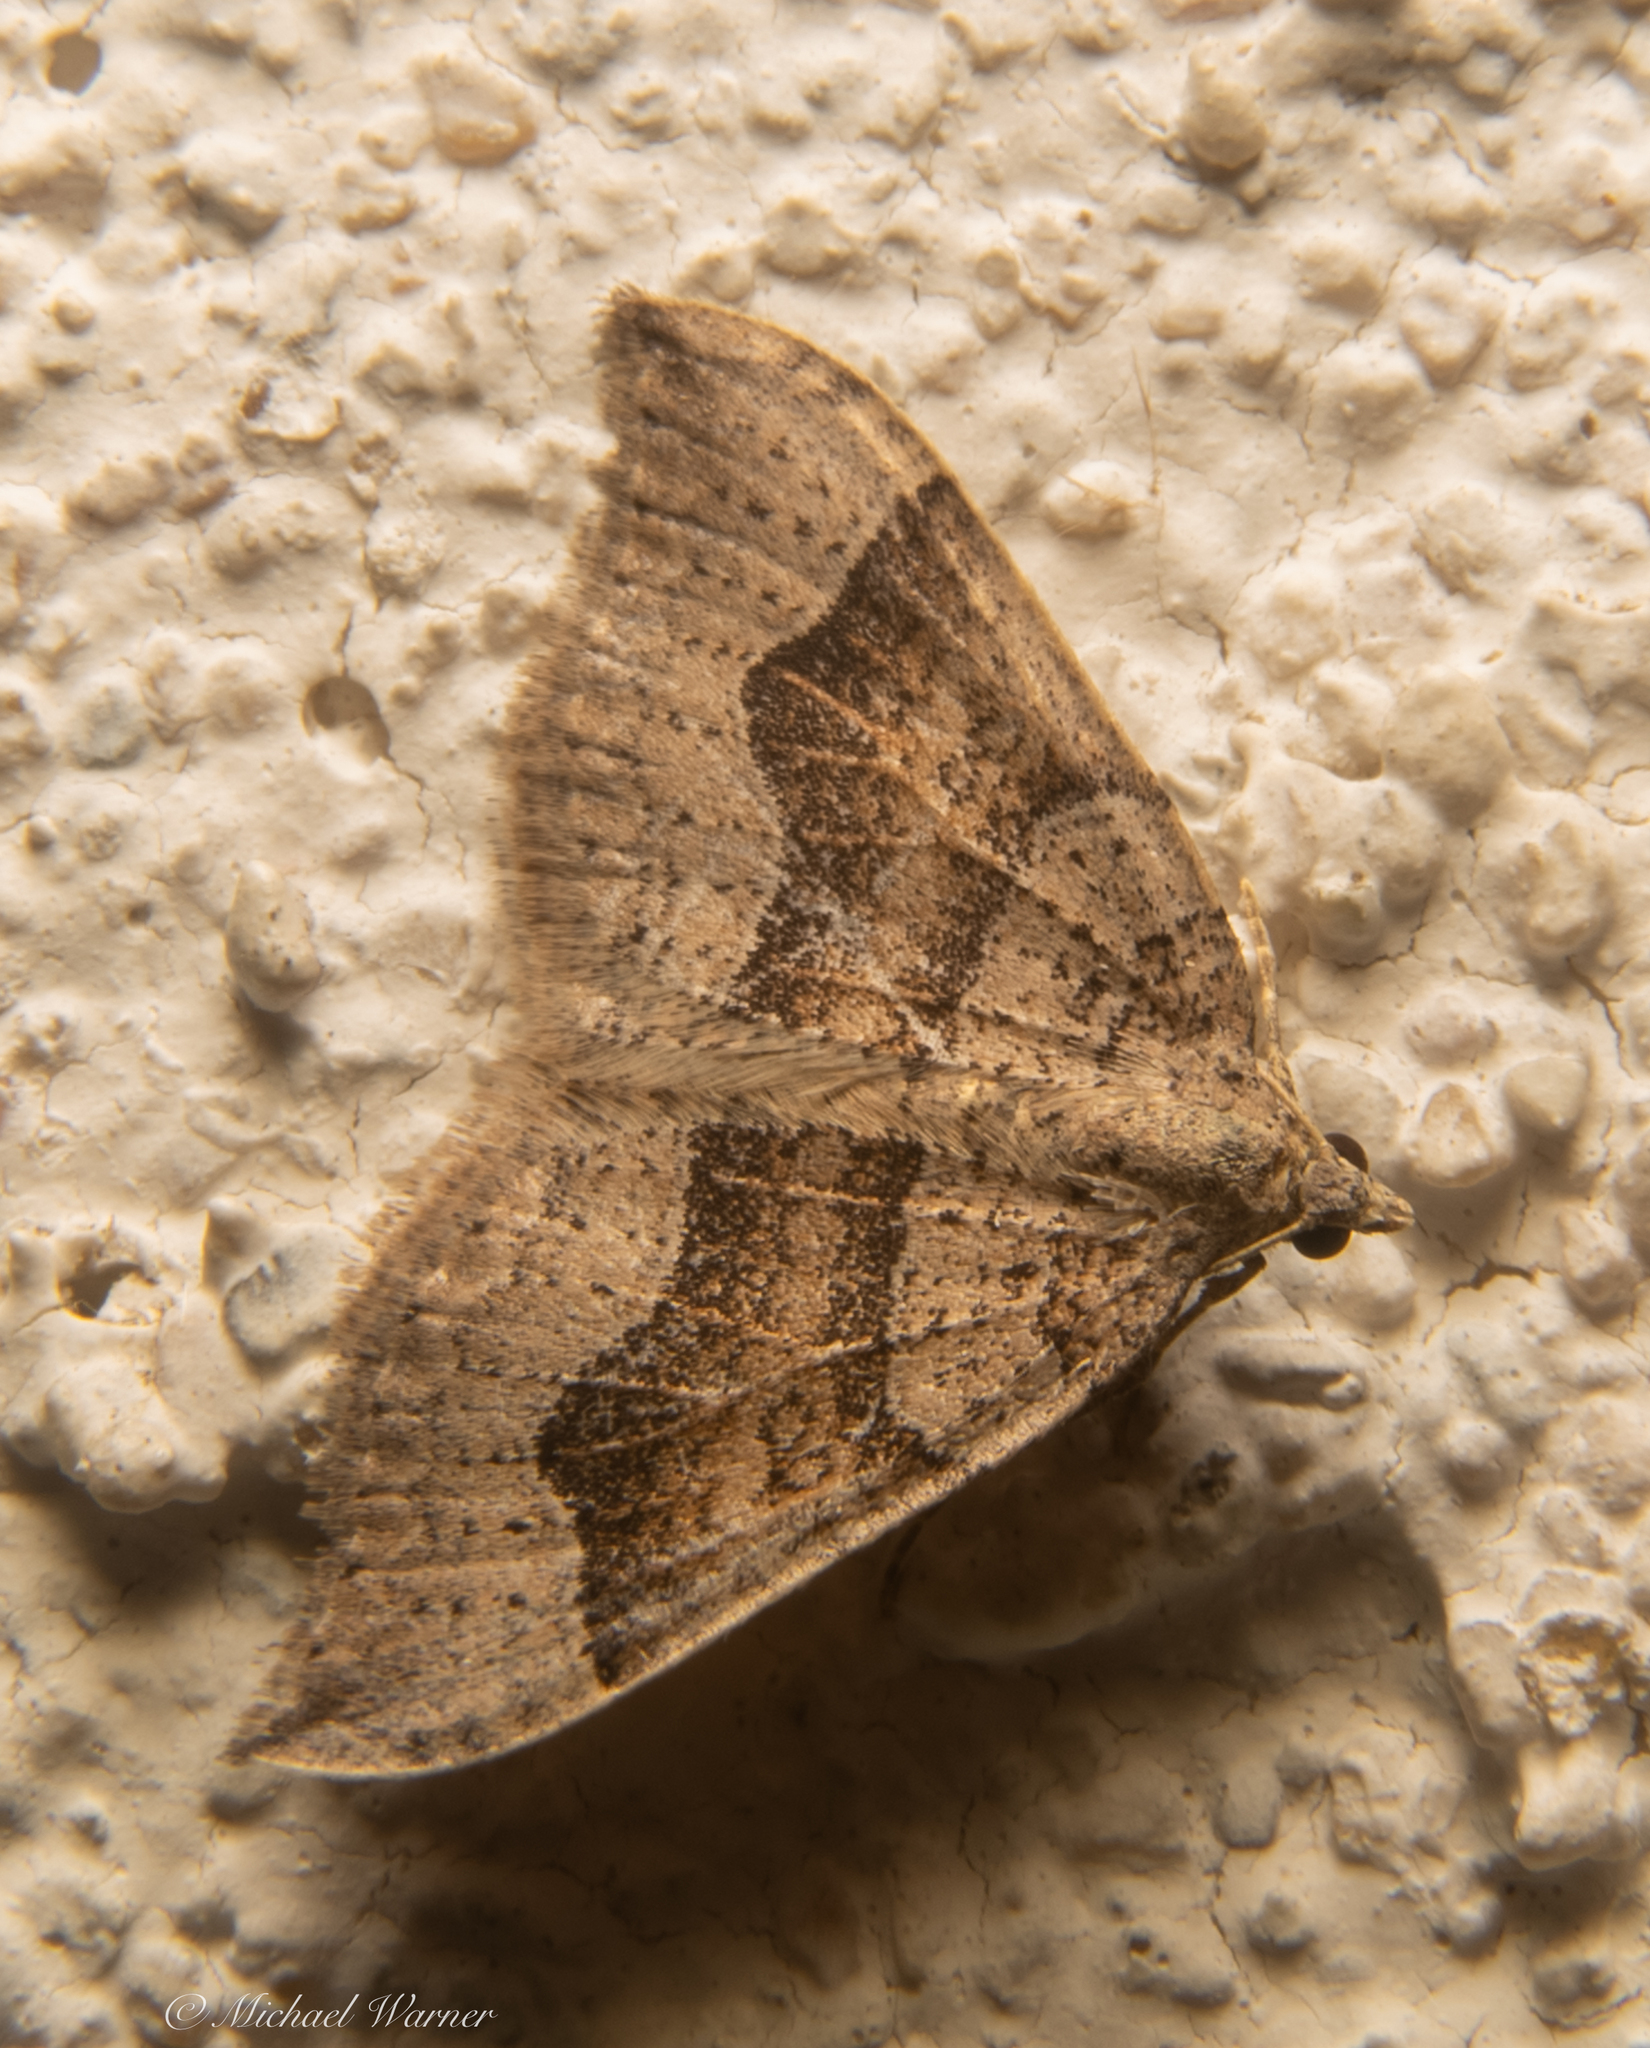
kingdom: Animalia
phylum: Arthropoda
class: Insecta
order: Lepidoptera
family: Geometridae
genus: Zenophleps
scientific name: Zenophleps lignicolorata
